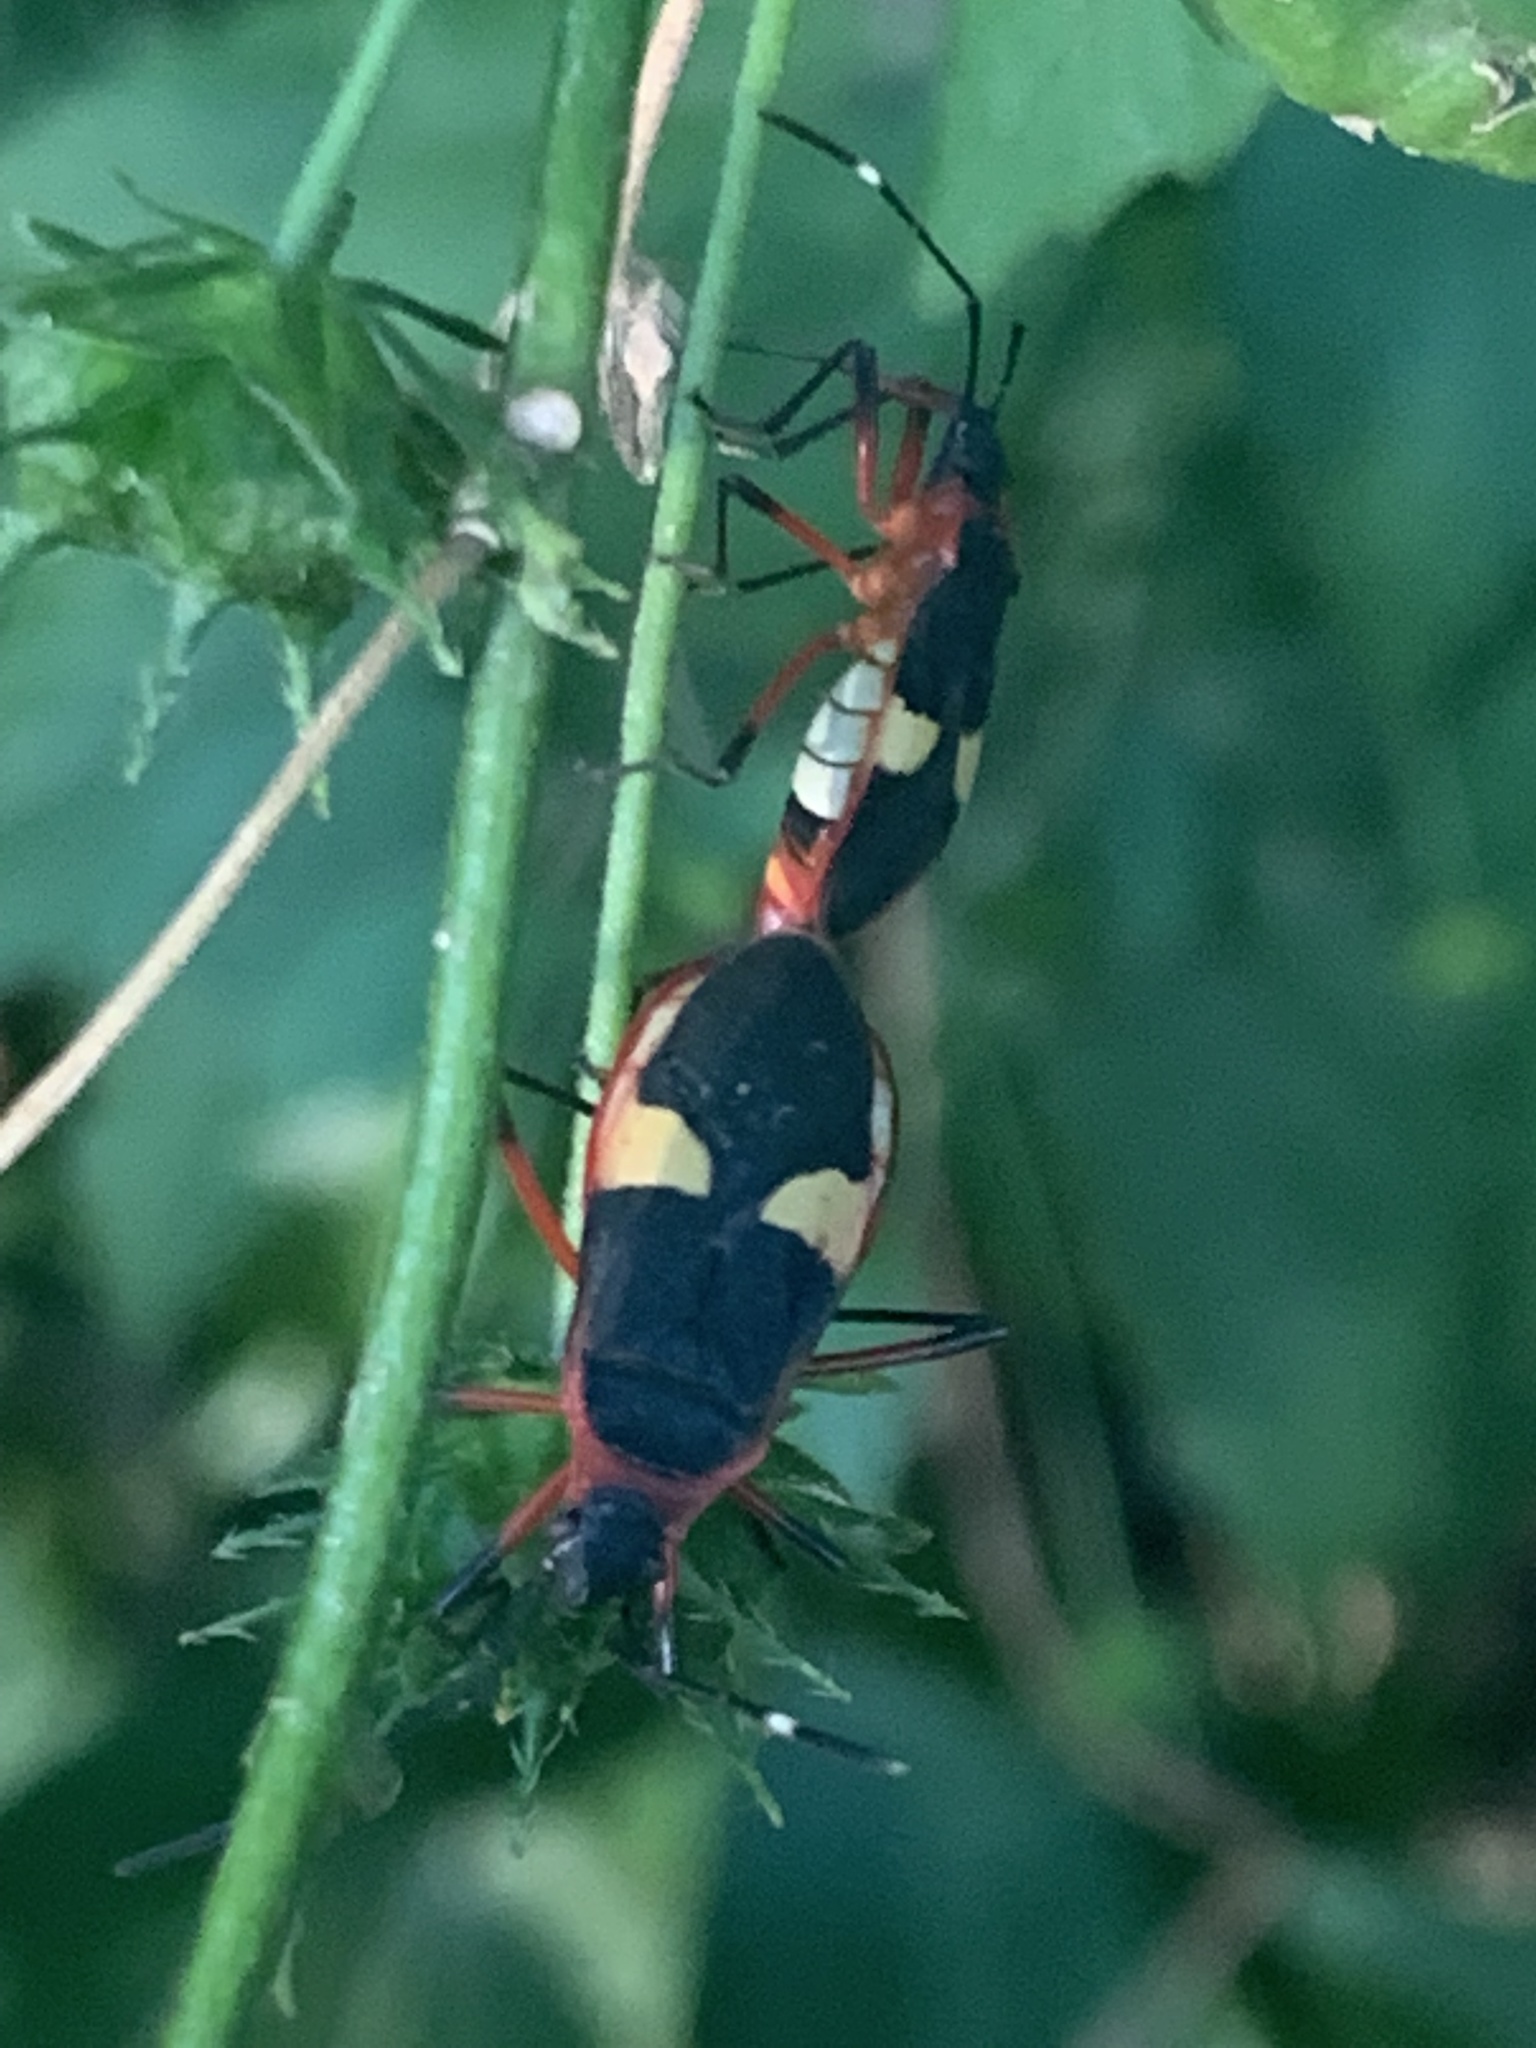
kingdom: Animalia
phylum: Arthropoda
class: Insecta
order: Hemiptera
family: Pyrrhocoridae
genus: Dysdercus
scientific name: Dysdercus albofasciatus
